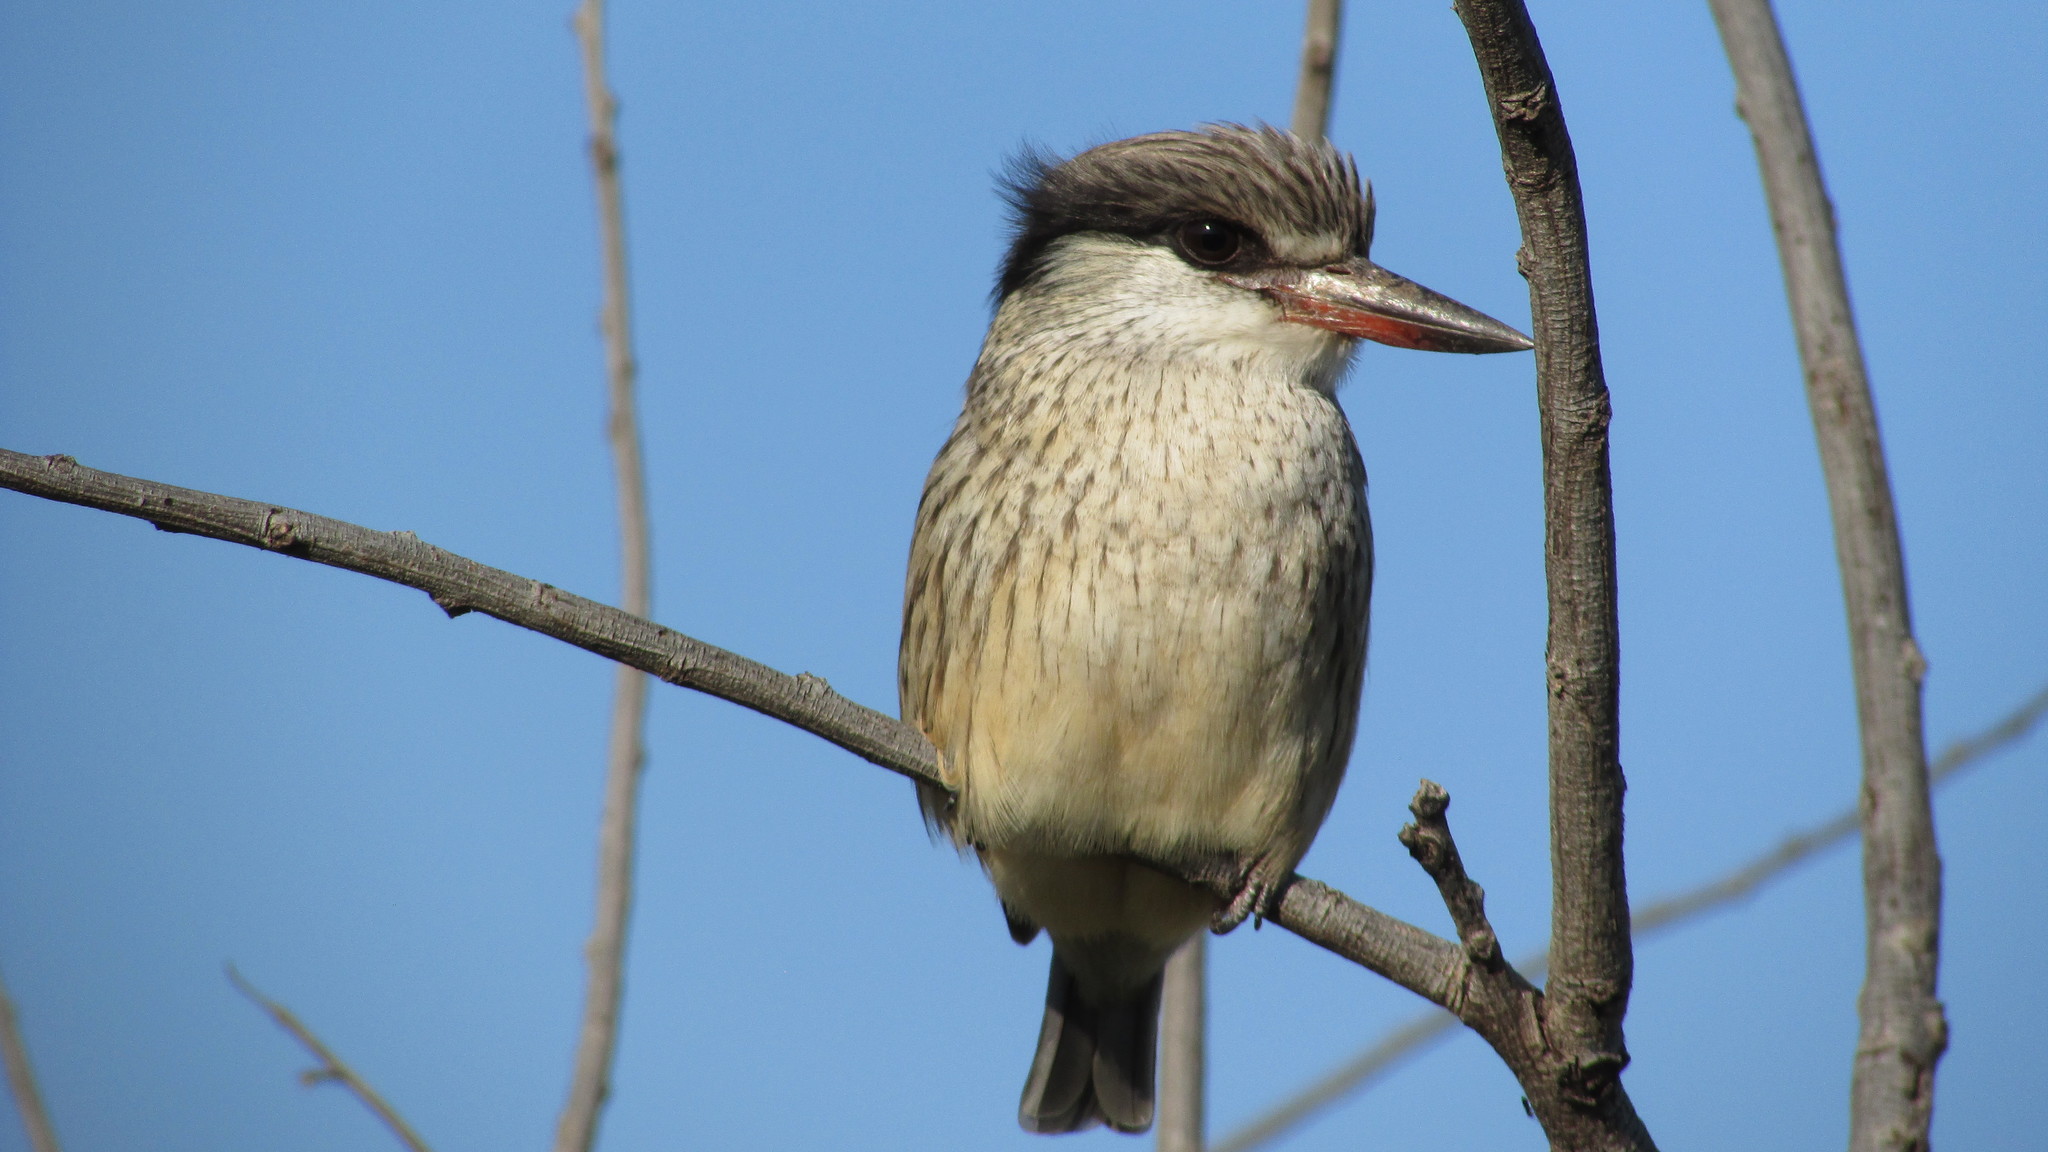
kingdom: Animalia
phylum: Chordata
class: Aves
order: Coraciiformes
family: Alcedinidae
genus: Halcyon
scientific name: Halcyon chelicuti
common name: Striped kingfisher
